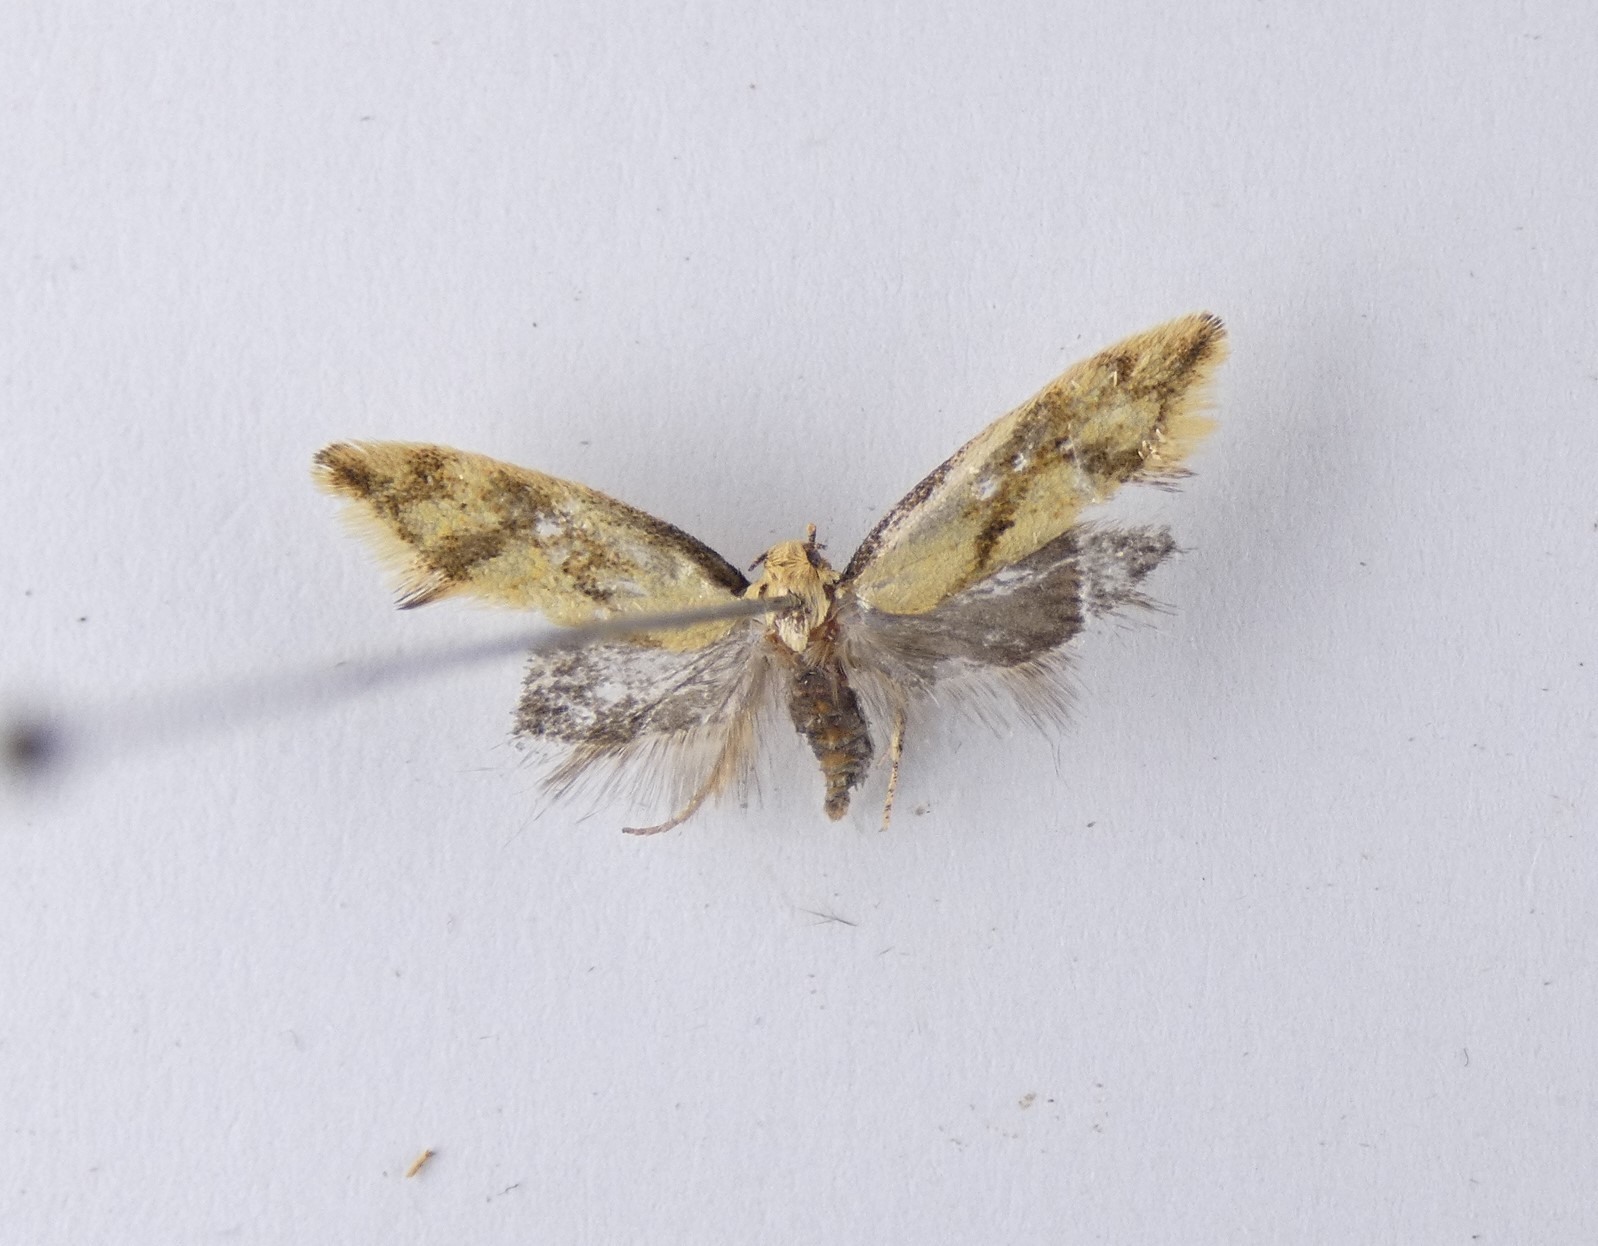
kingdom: Animalia
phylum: Arthropoda
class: Insecta
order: Lepidoptera
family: Oecophoridae
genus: Tingena
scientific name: Tingena actinias
